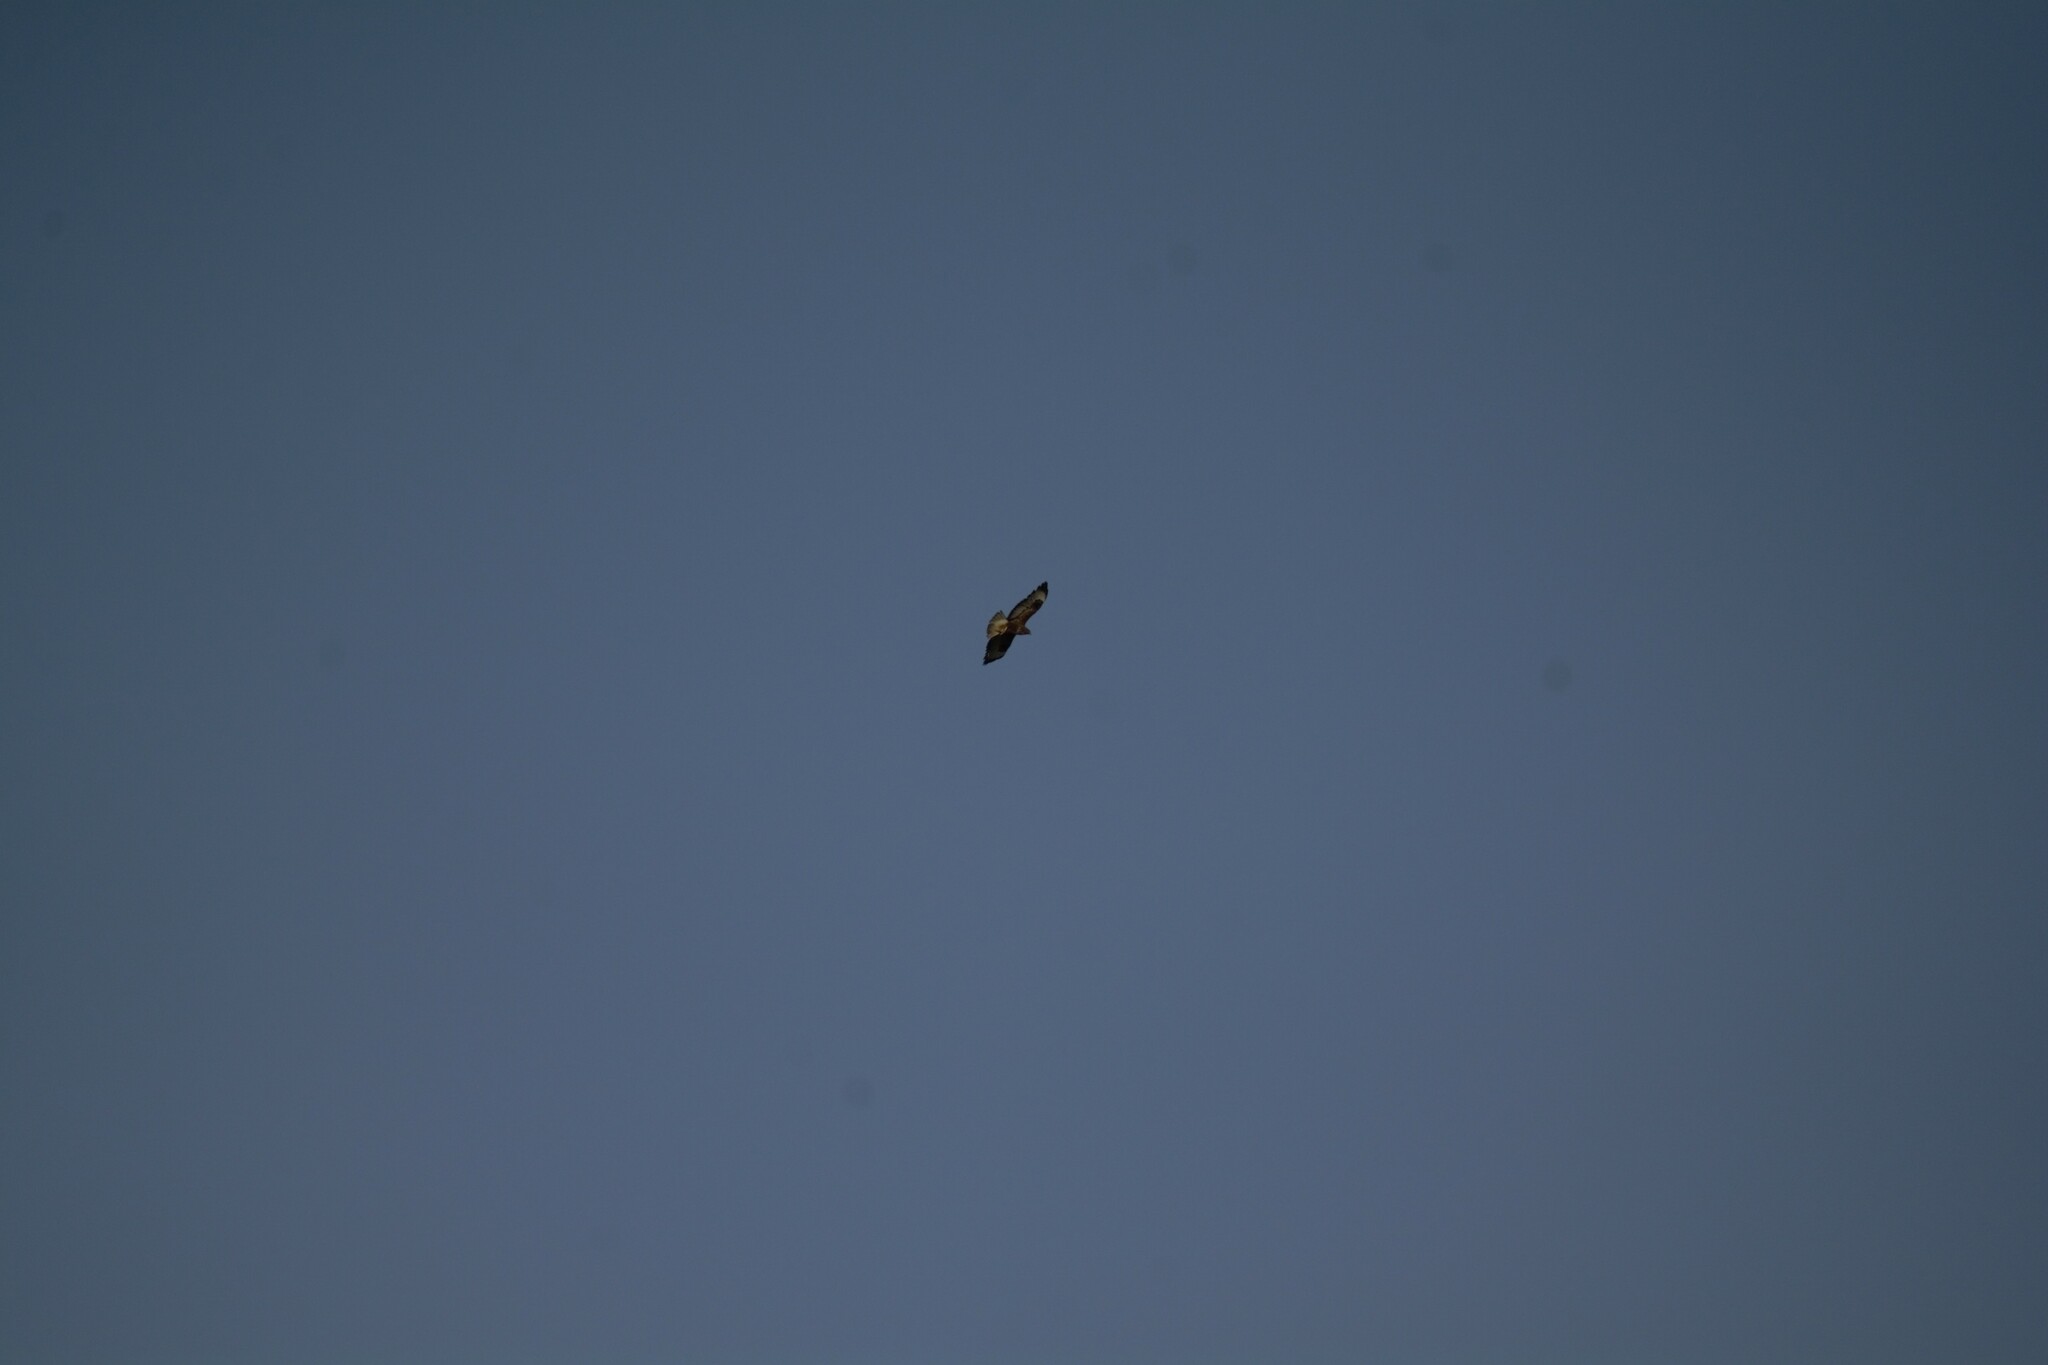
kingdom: Animalia
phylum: Chordata
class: Aves
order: Accipitriformes
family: Accipitridae
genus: Buteo
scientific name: Buteo buteo
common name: Common buzzard
